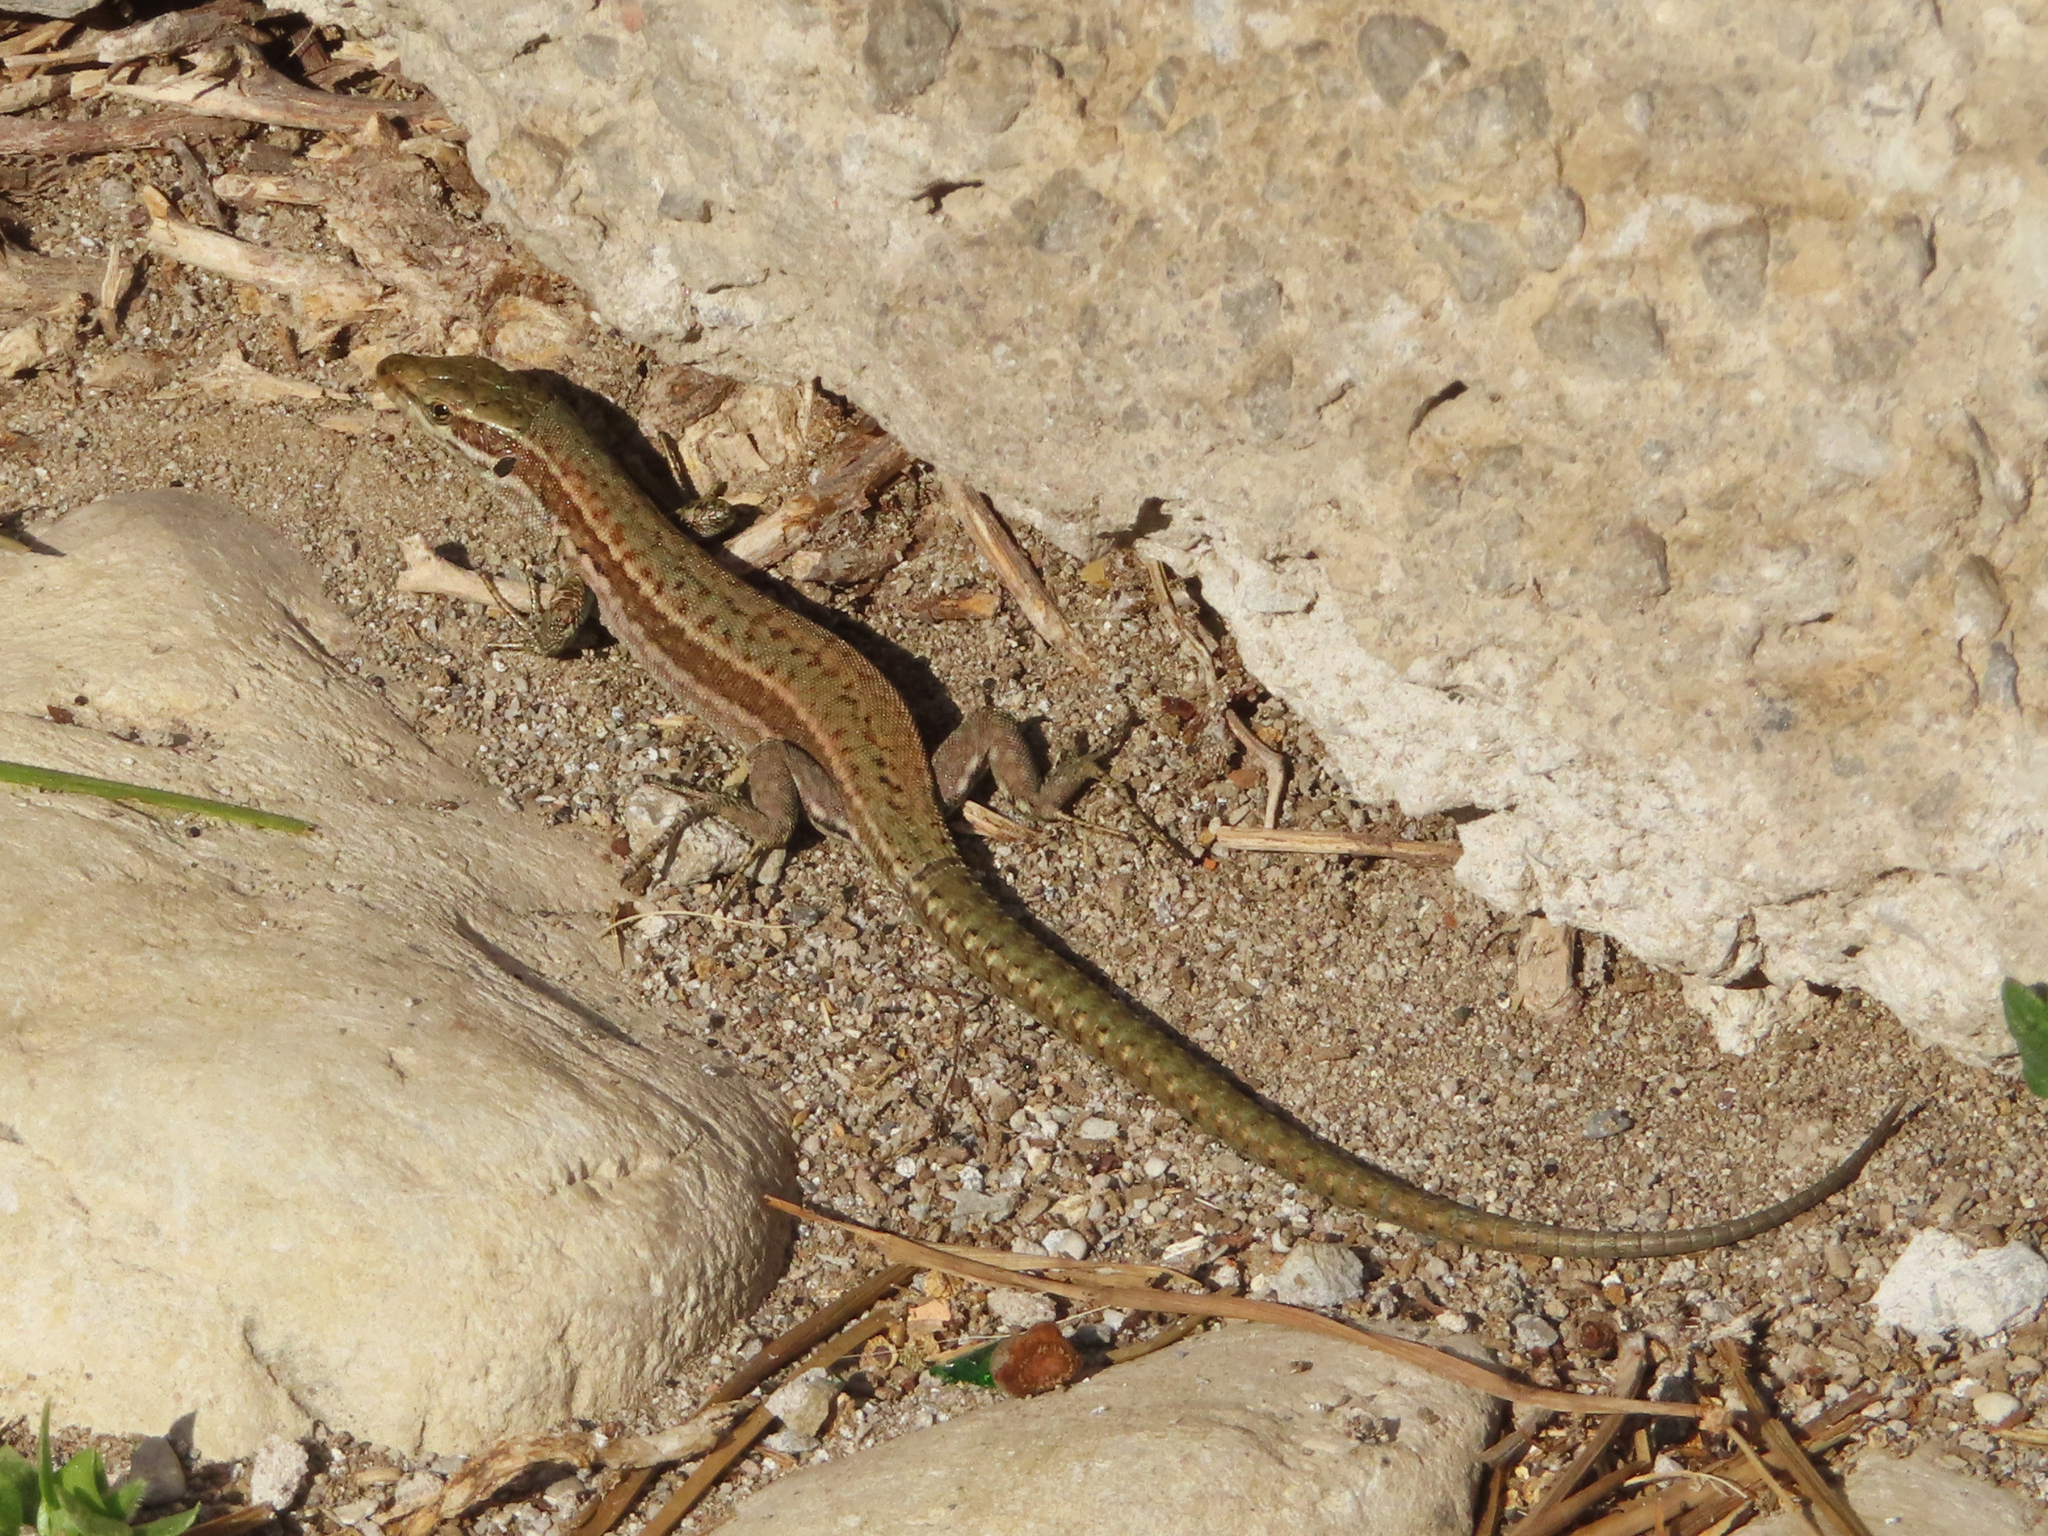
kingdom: Animalia
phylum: Chordata
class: Squamata
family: Lacertidae
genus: Podarcis
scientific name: Podarcis muralis
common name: Common wall lizard
